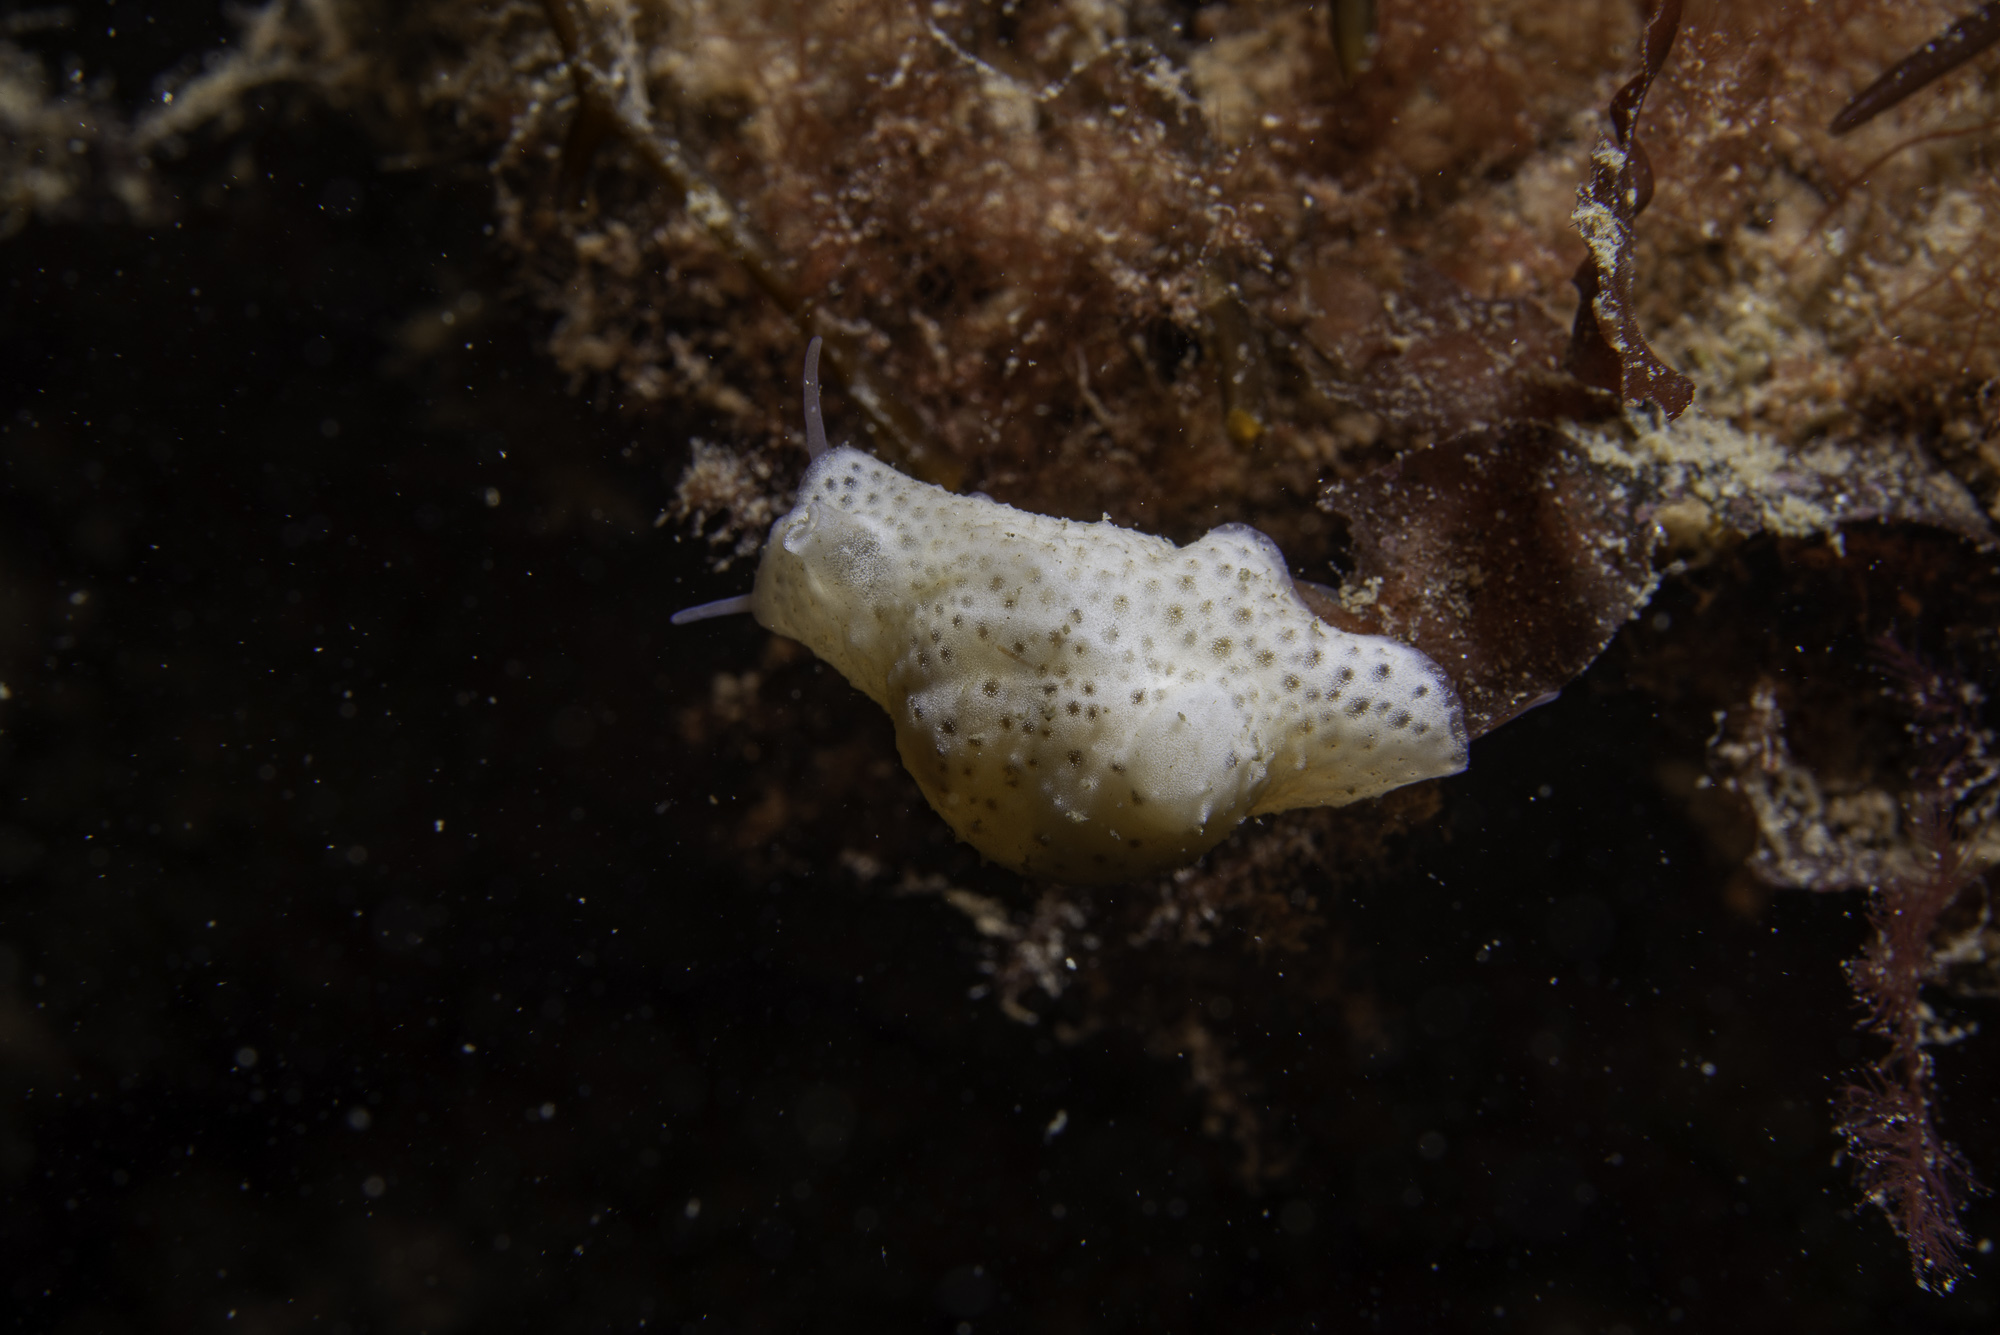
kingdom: Animalia
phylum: Mollusca
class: Gastropoda
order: Littorinimorpha
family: Velutinidae
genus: Marsenia
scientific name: Marsenia perspicua
